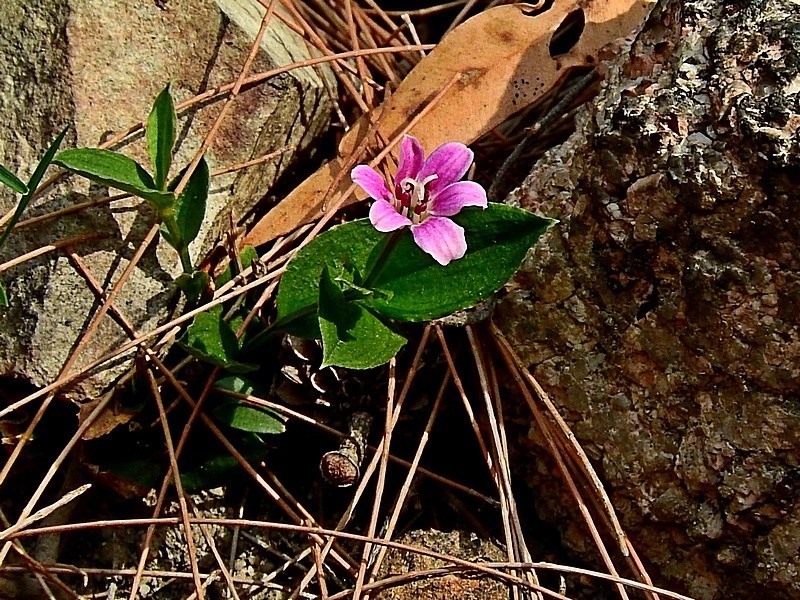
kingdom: Plantae
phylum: Tracheophyta
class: Liliopsida
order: Liliales
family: Colchicaceae
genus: Schelhammera
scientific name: Schelhammera undulata
